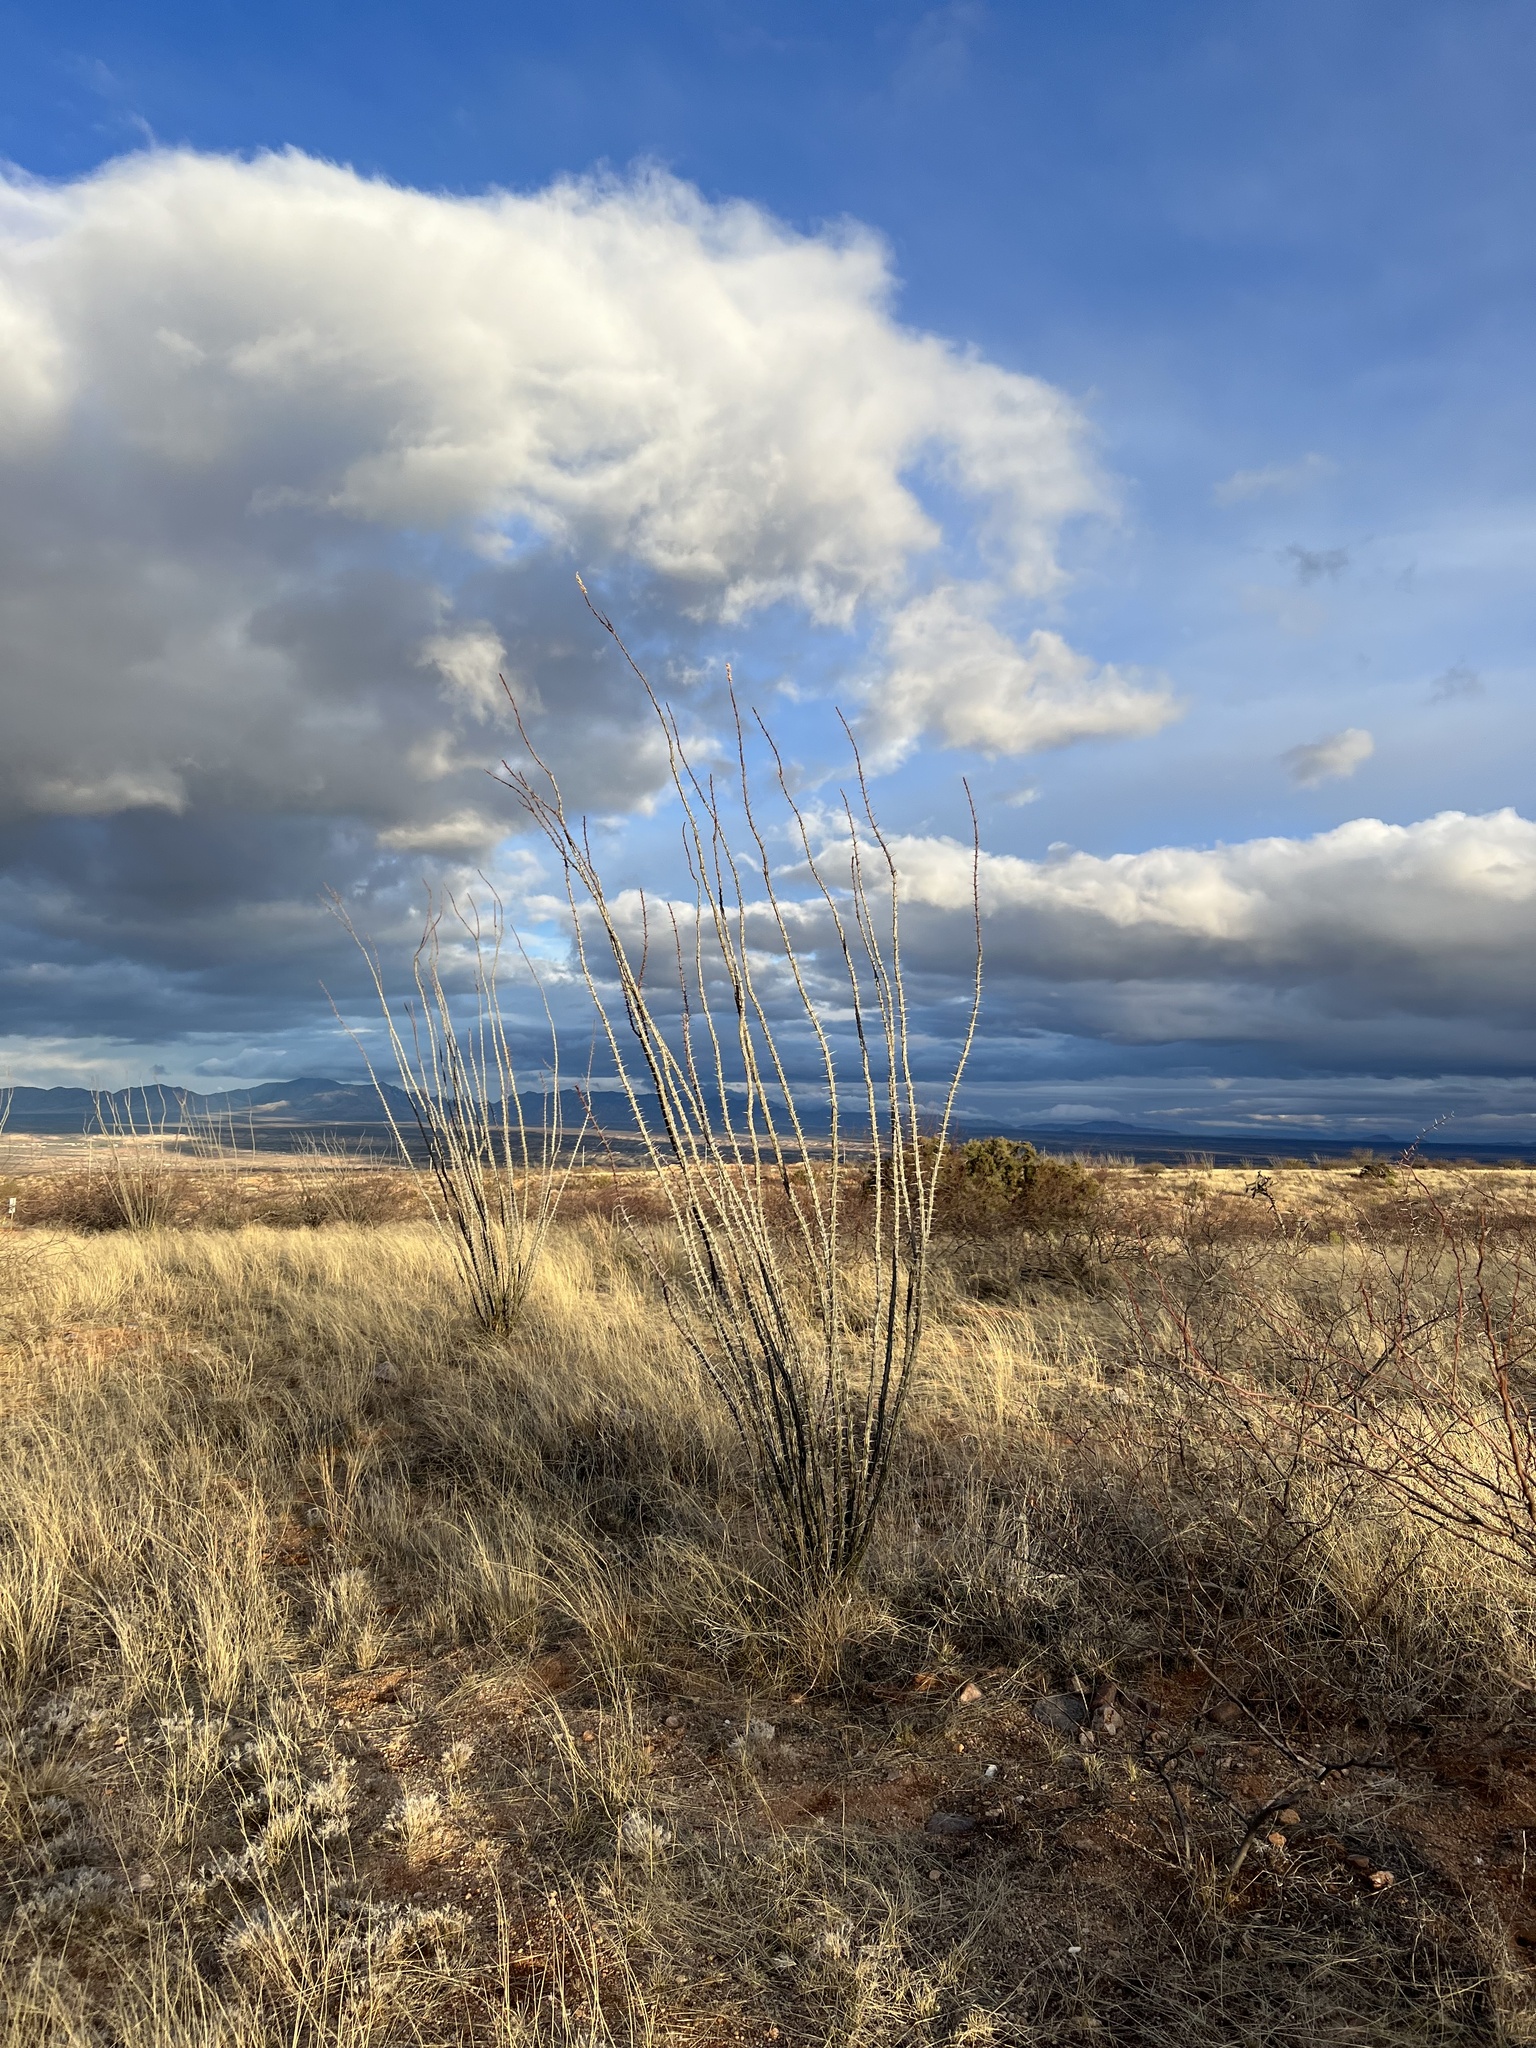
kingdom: Plantae
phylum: Tracheophyta
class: Magnoliopsida
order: Ericales
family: Fouquieriaceae
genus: Fouquieria
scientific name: Fouquieria splendens
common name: Vine-cactus
